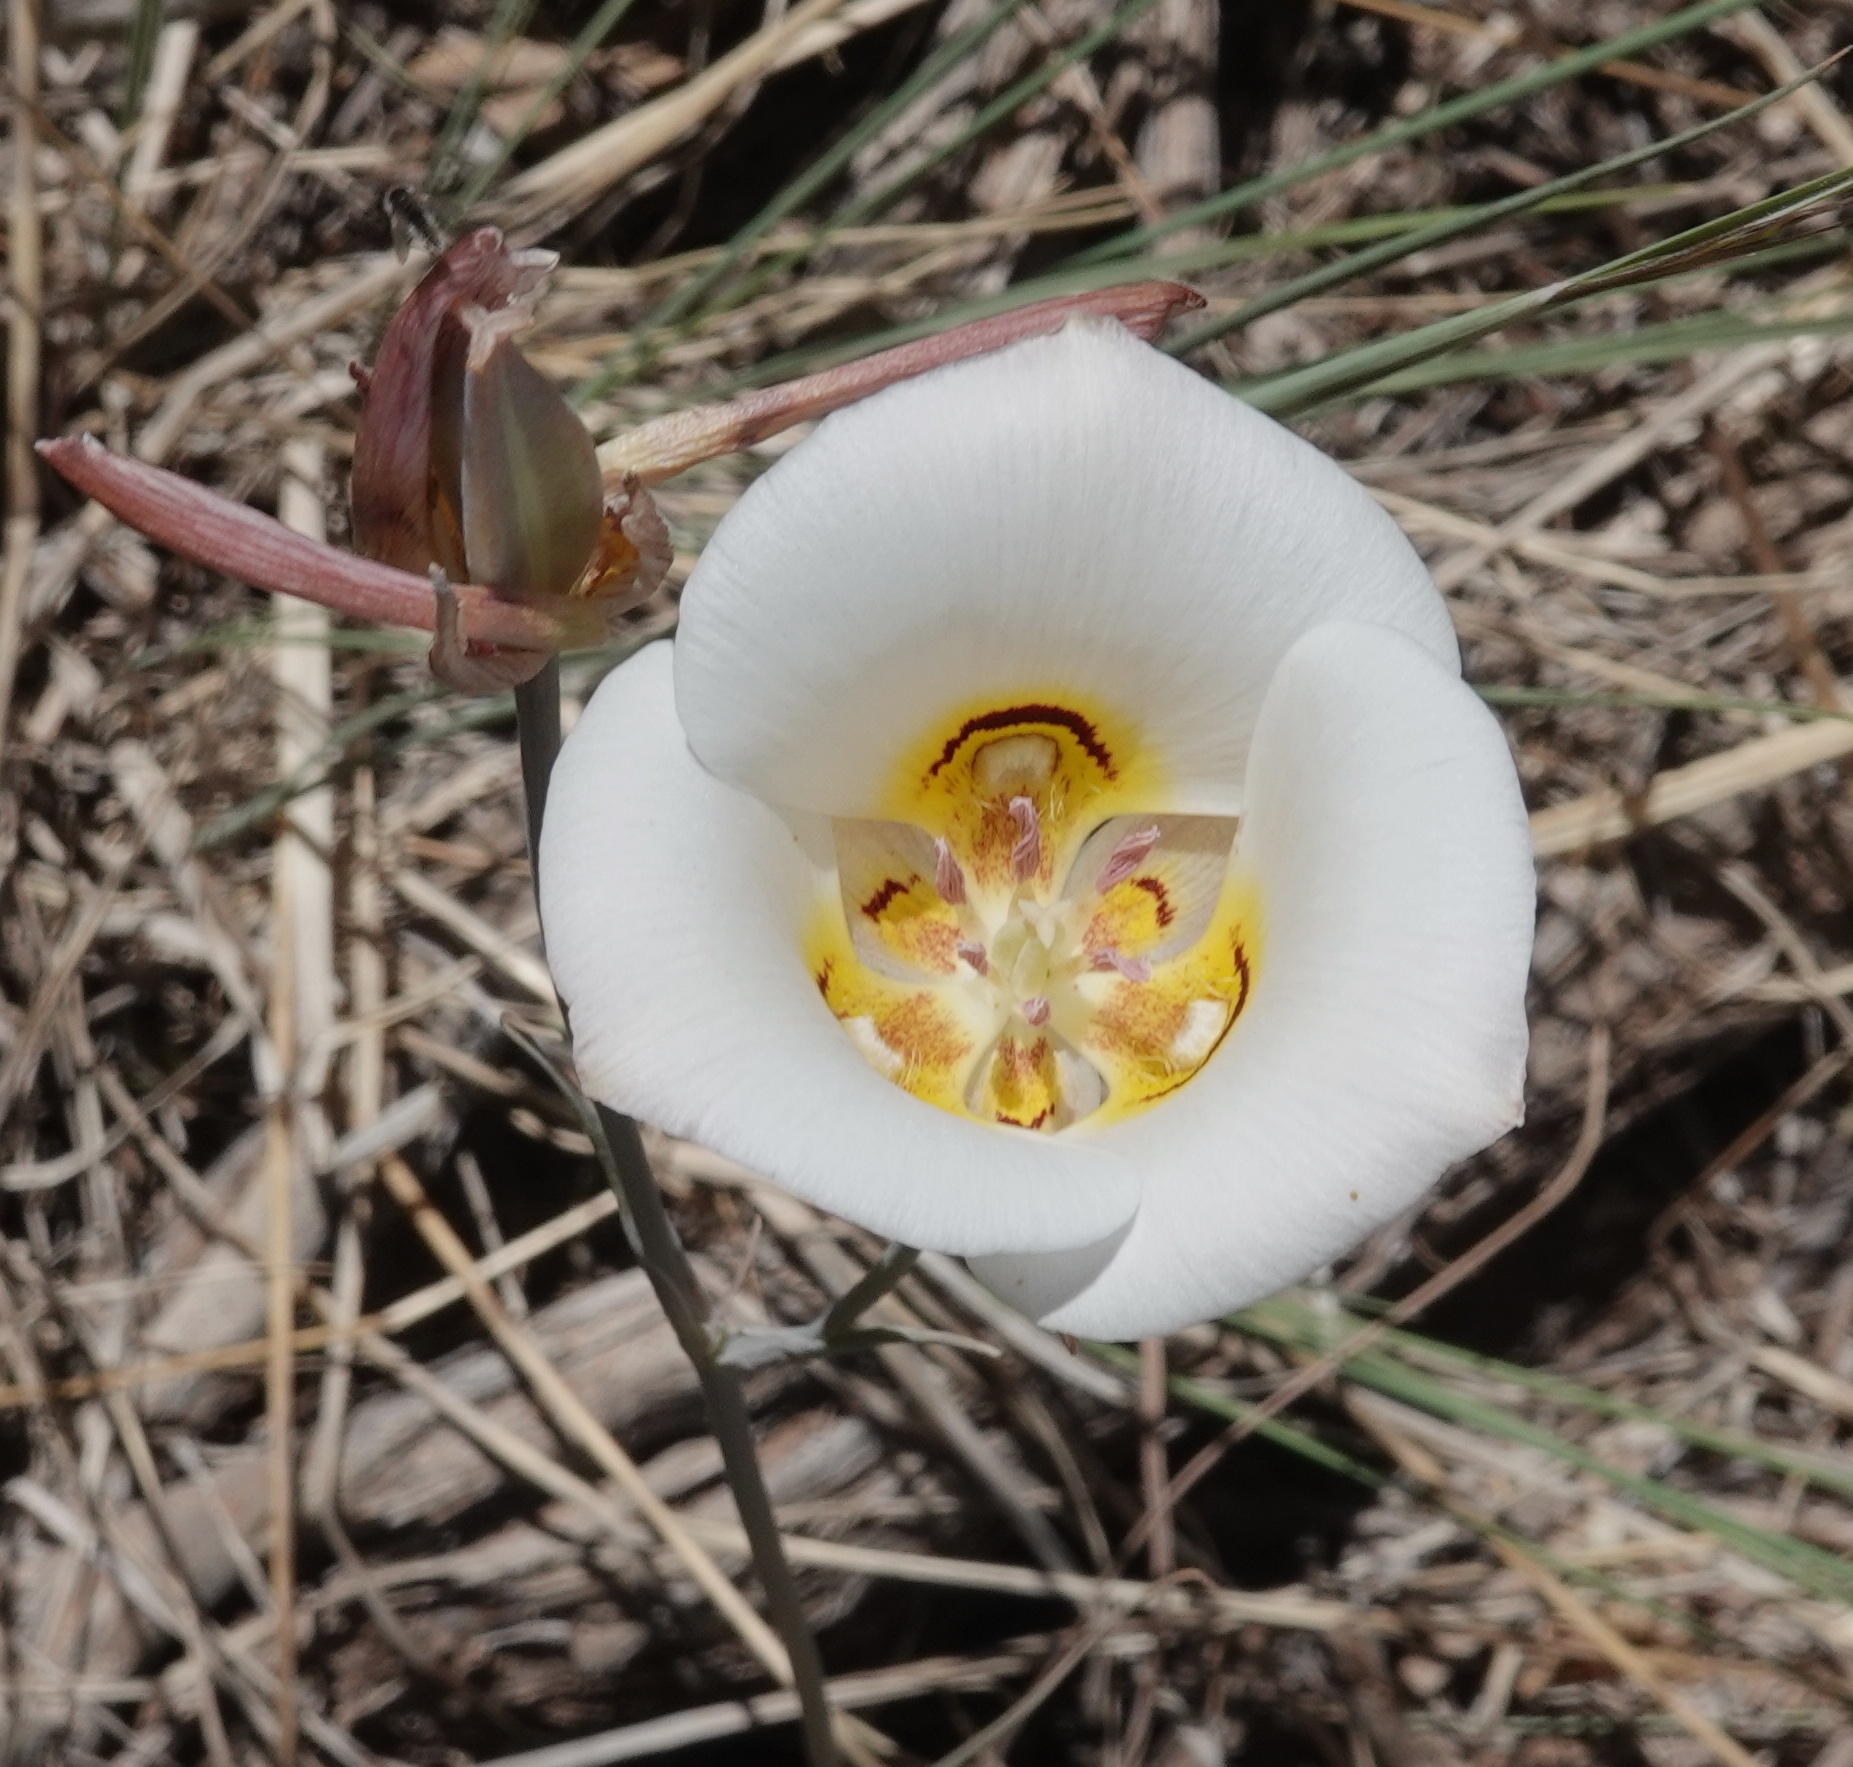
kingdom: Plantae
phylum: Tracheophyta
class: Liliopsida
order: Liliales
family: Liliaceae
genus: Calochortus
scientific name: Calochortus nuttallii
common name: Sego-lily
